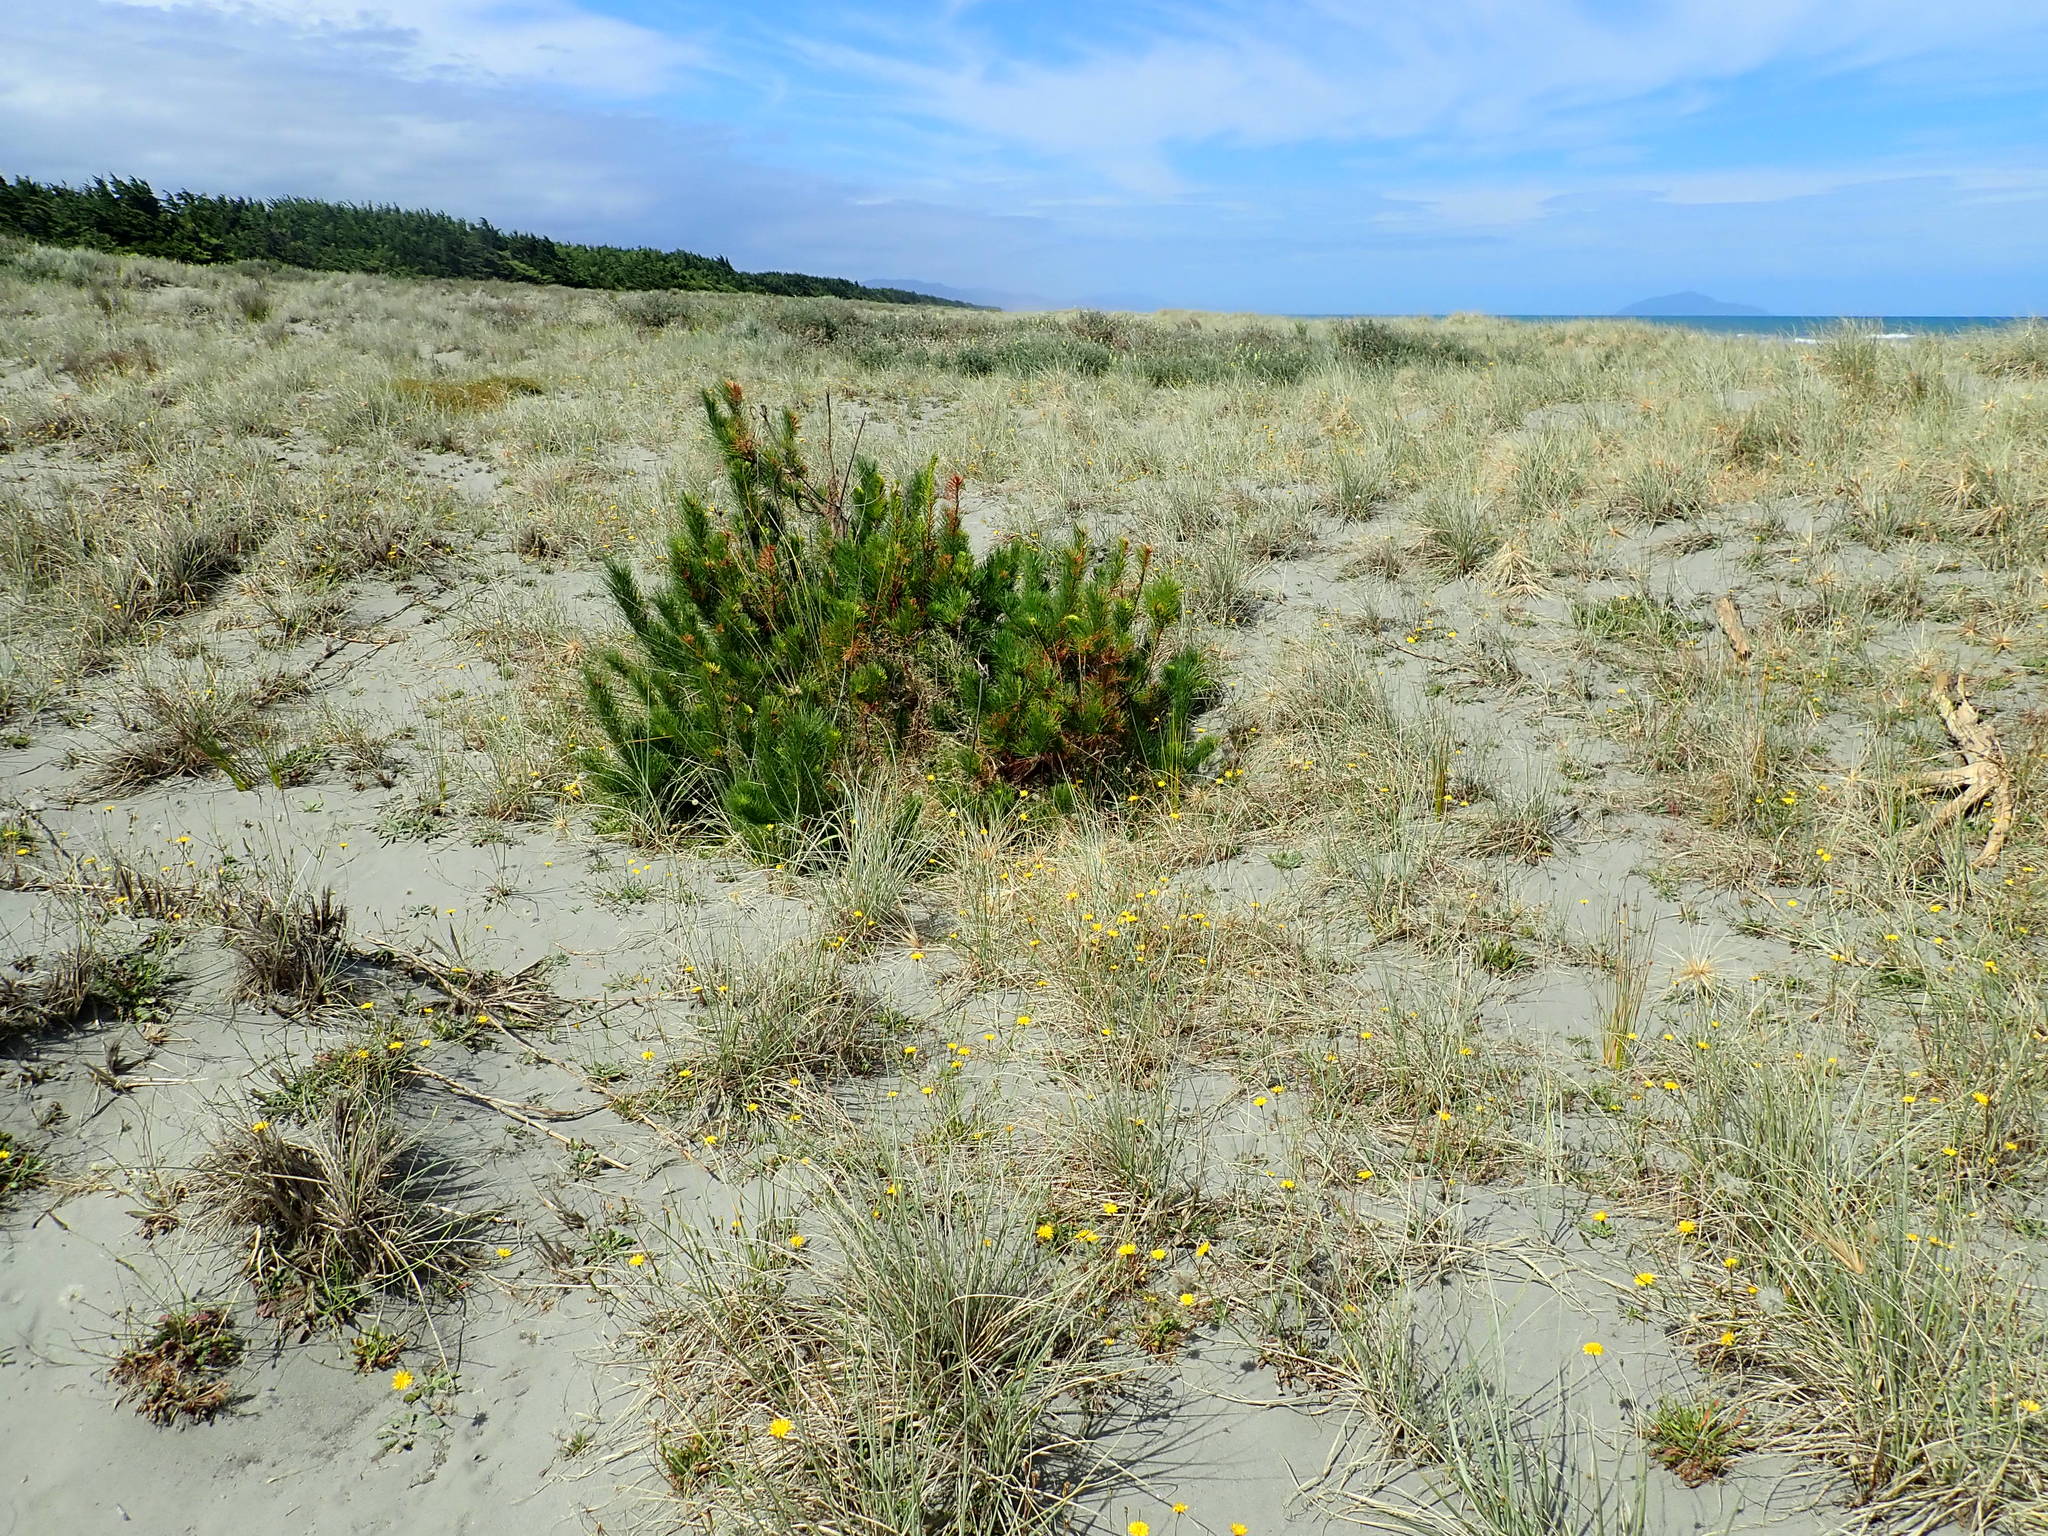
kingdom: Plantae
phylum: Tracheophyta
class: Pinopsida
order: Pinales
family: Pinaceae
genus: Pinus
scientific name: Pinus radiata
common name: Monterey pine
